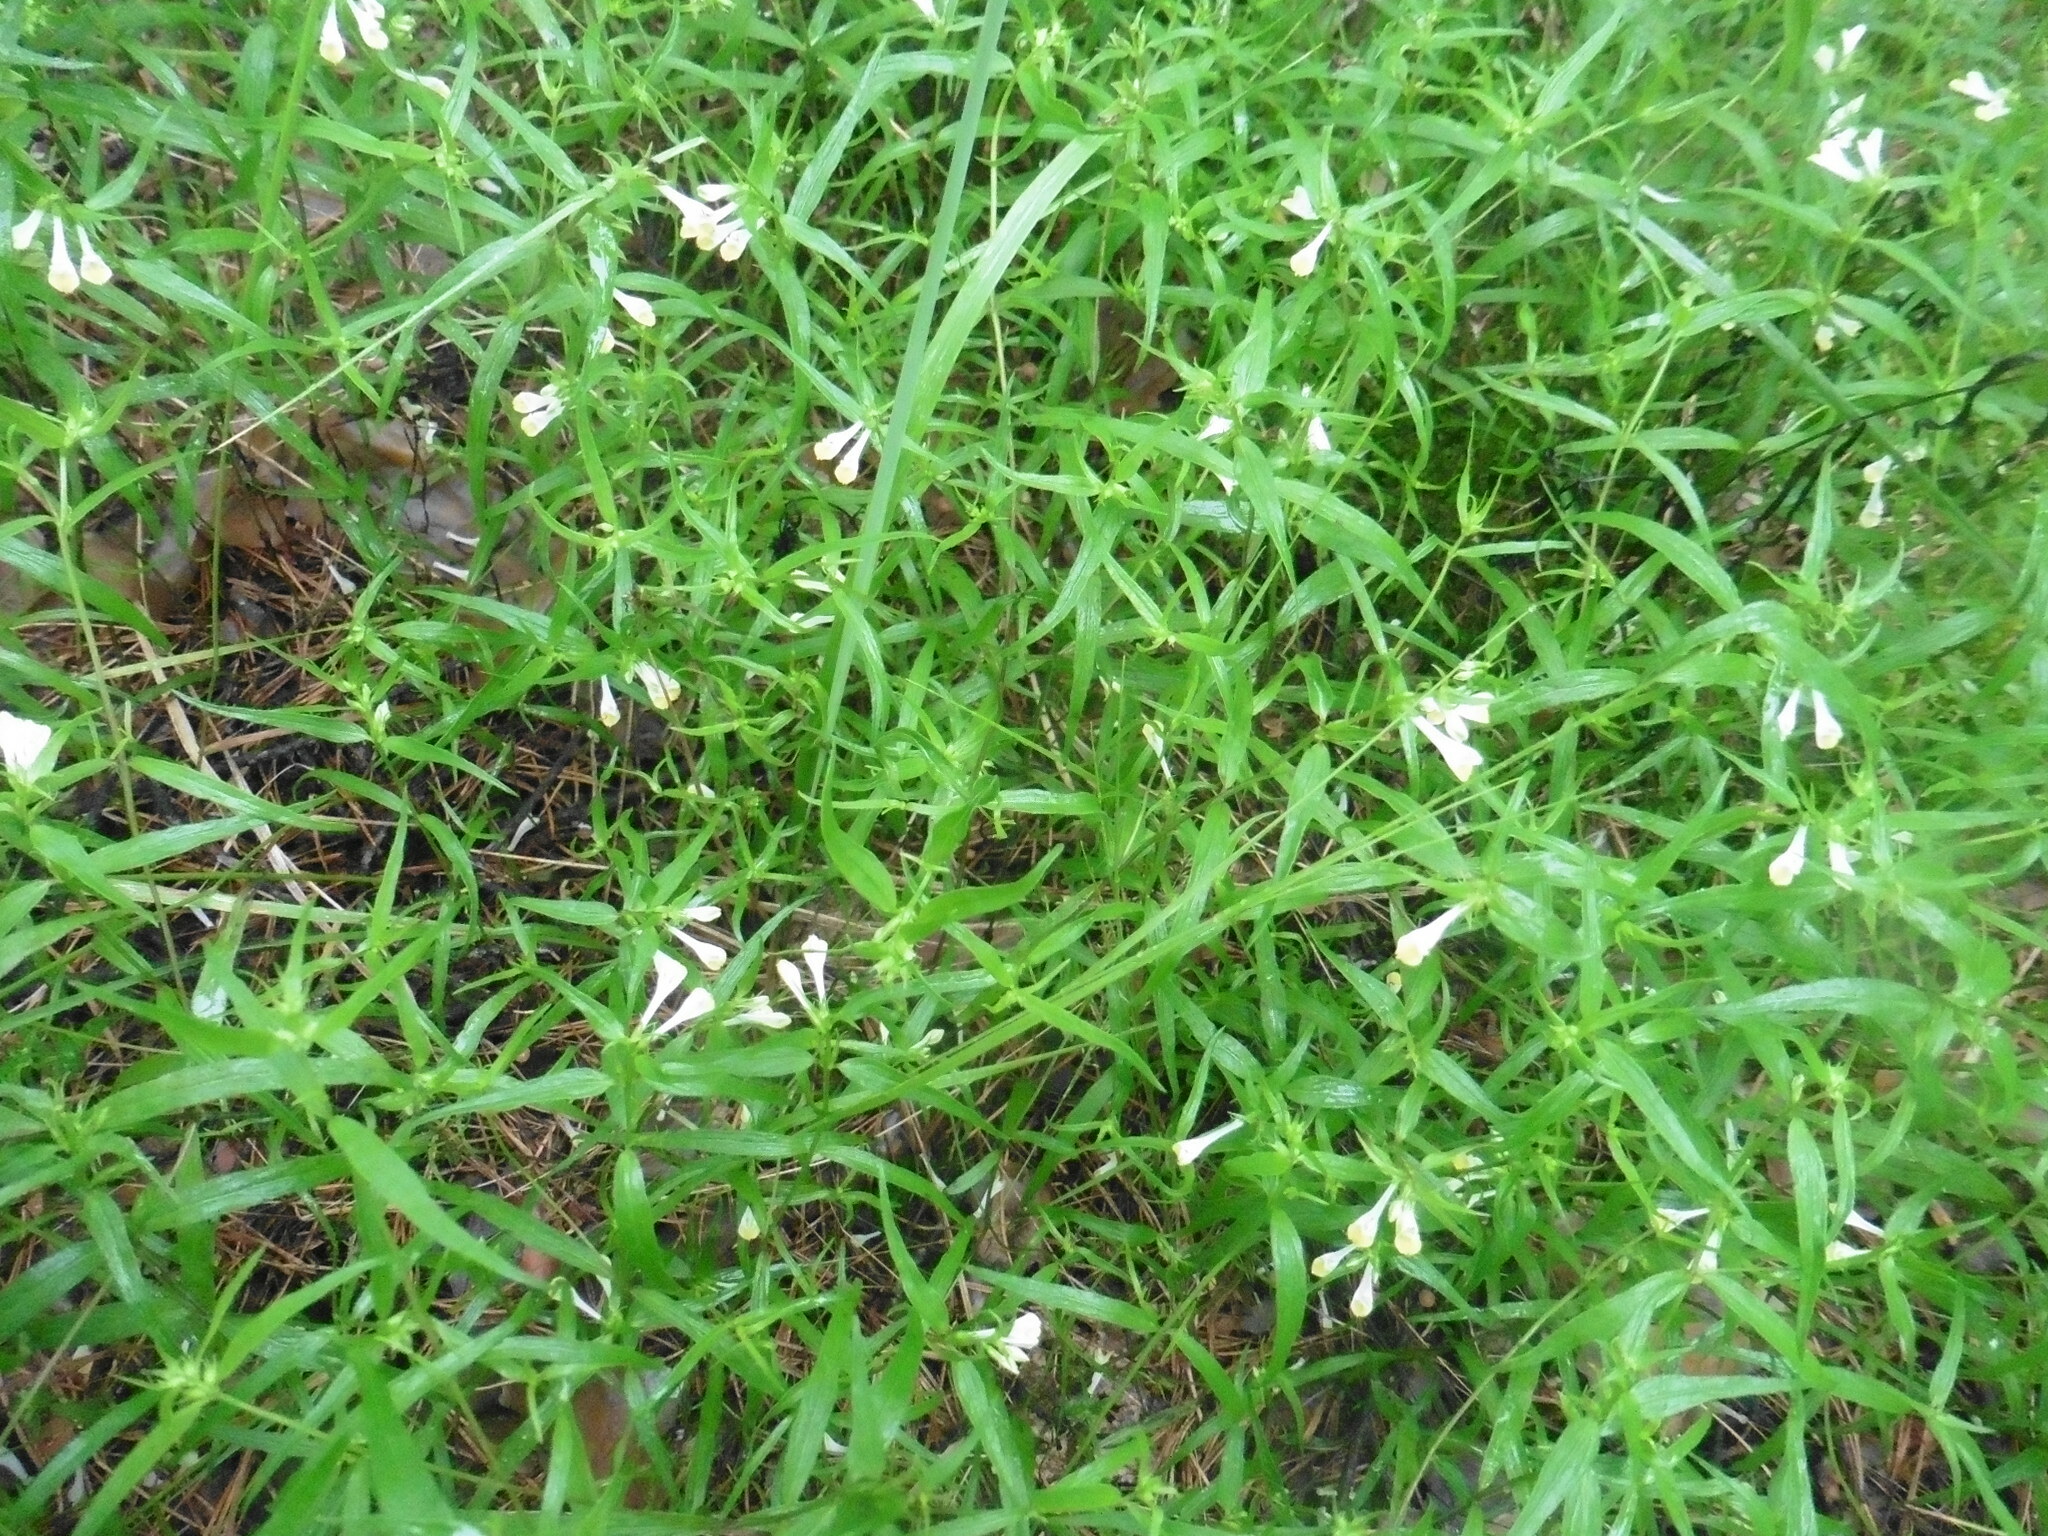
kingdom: Plantae
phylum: Tracheophyta
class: Magnoliopsida
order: Lamiales
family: Orobanchaceae
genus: Melampyrum
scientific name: Melampyrum pratense
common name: Common cow-wheat
